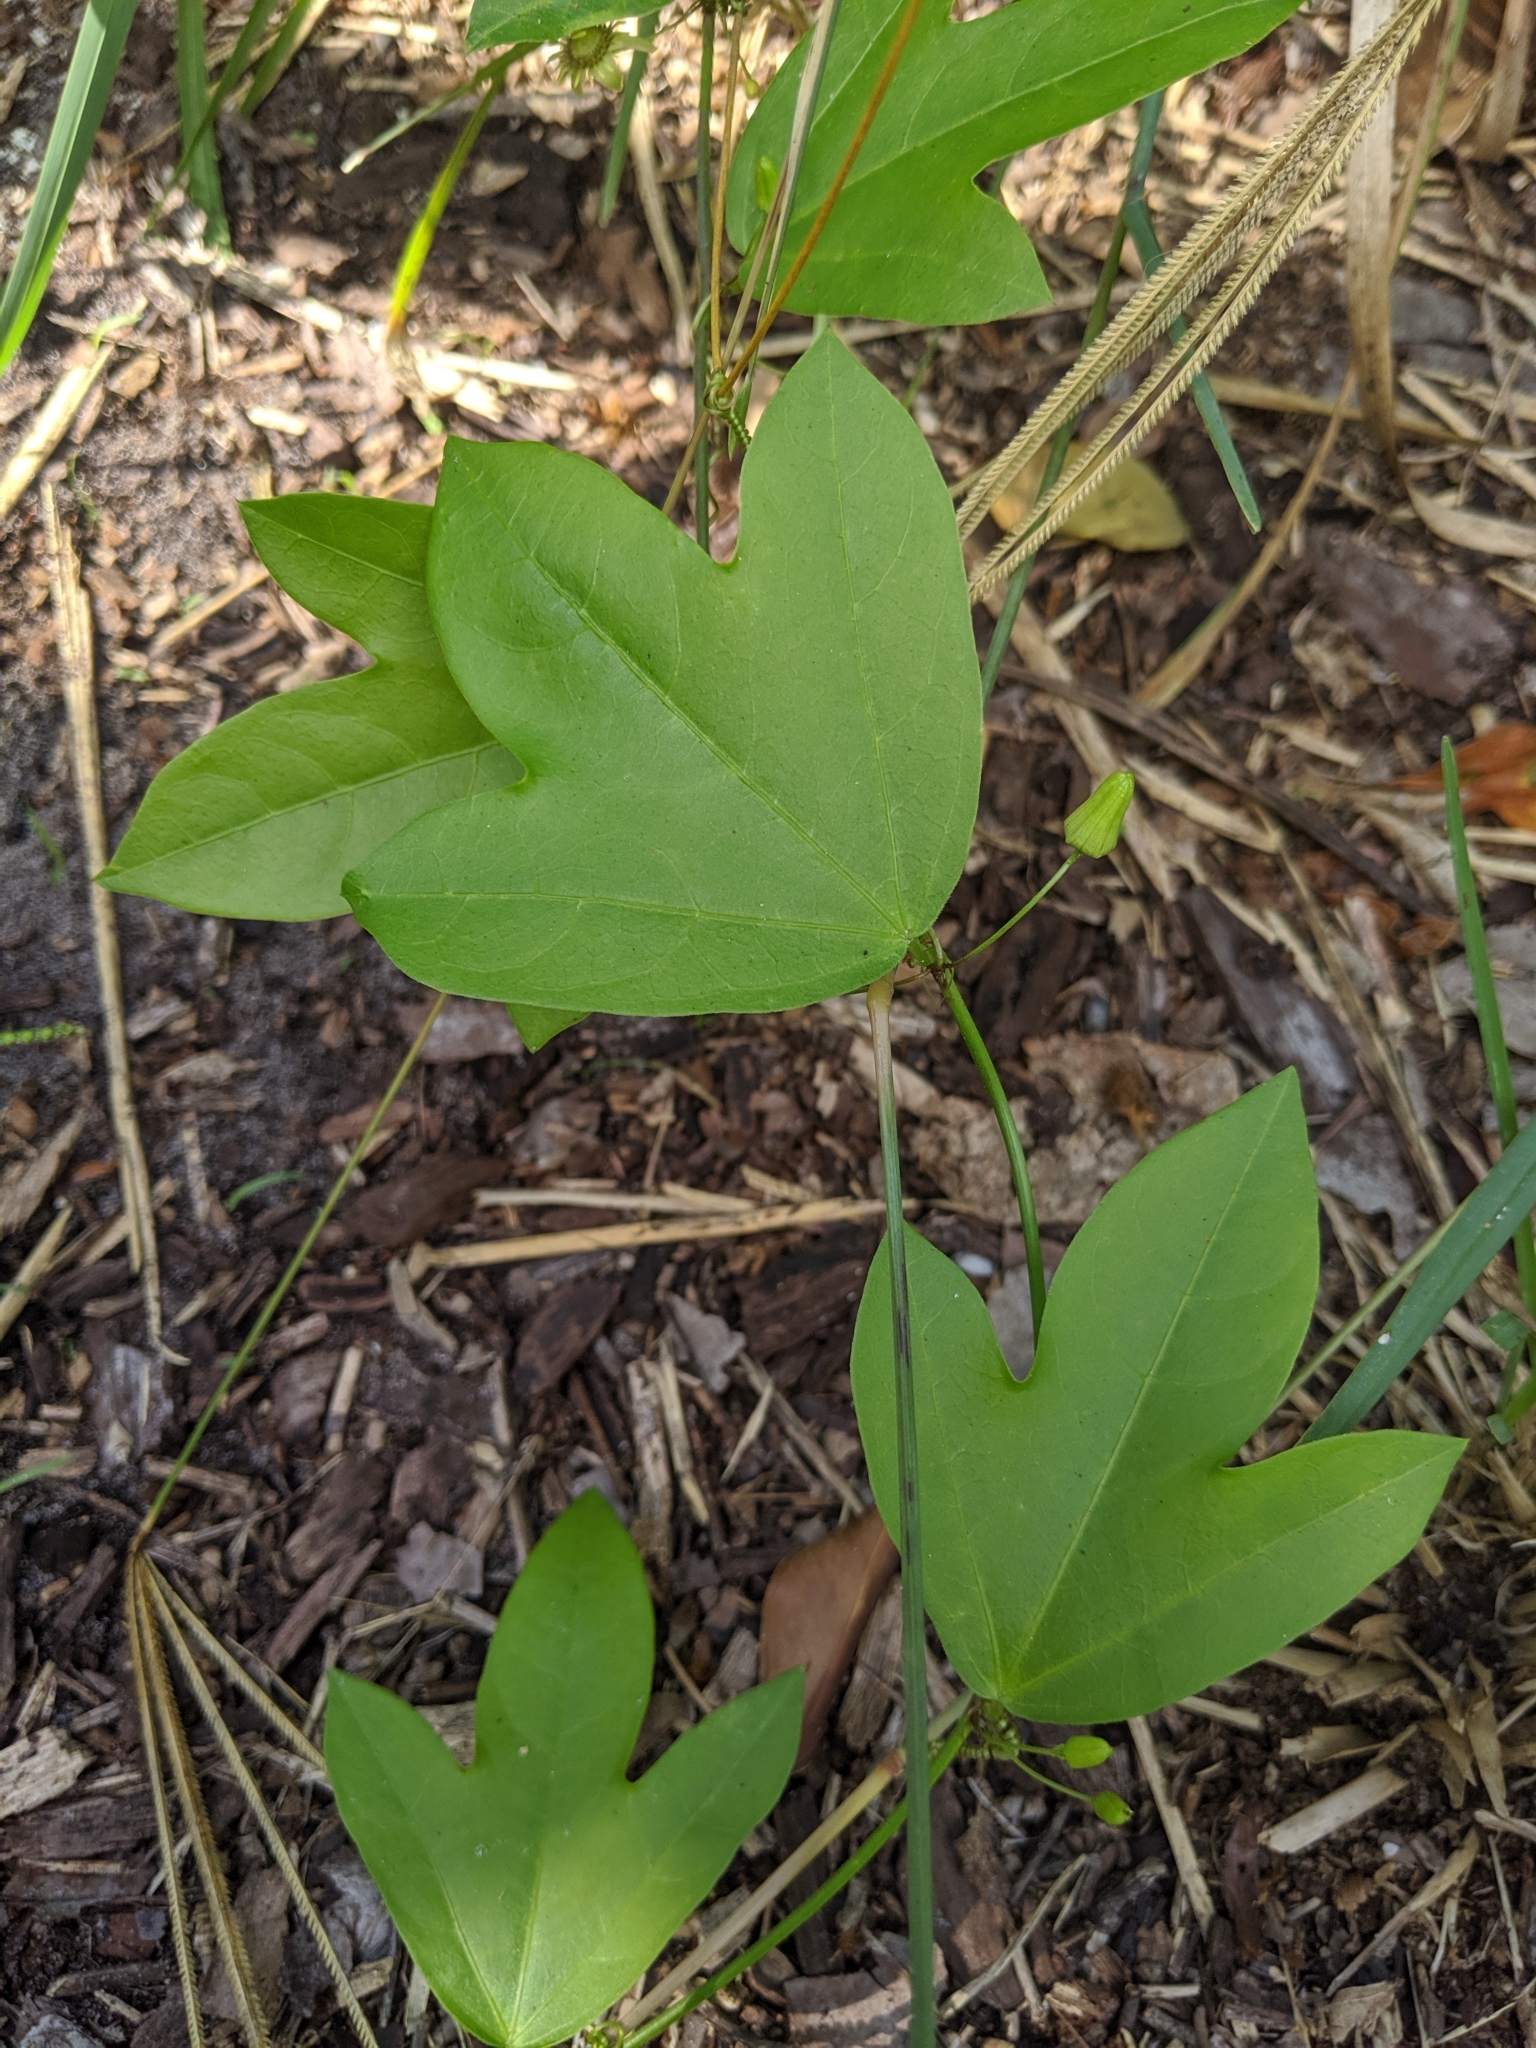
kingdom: Plantae
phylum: Tracheophyta
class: Magnoliopsida
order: Malpighiales
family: Passifloraceae
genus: Passiflora
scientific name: Passiflora pallida
